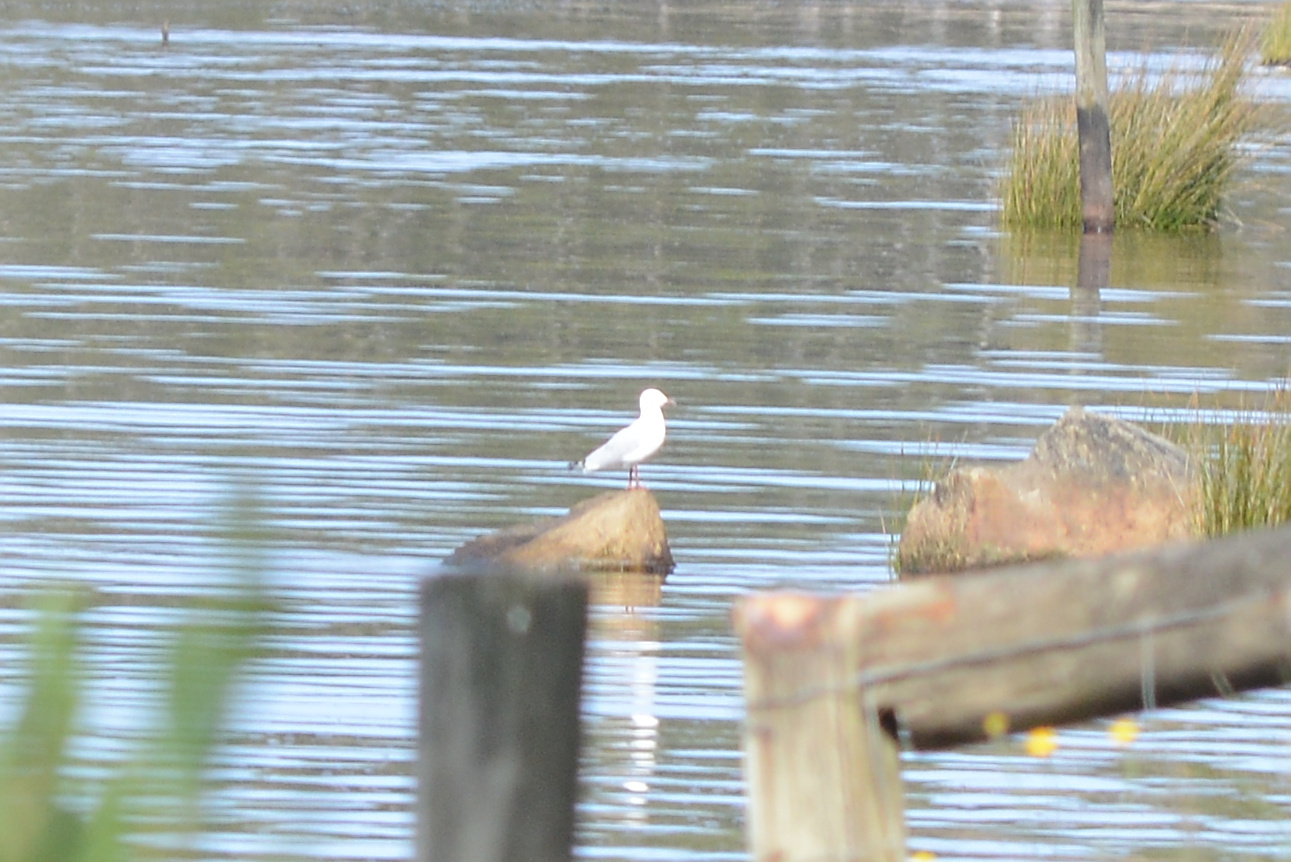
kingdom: Animalia
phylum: Chordata
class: Aves
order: Charadriiformes
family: Laridae
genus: Chroicocephalus
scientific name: Chroicocephalus novaehollandiae
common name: Silver gull
